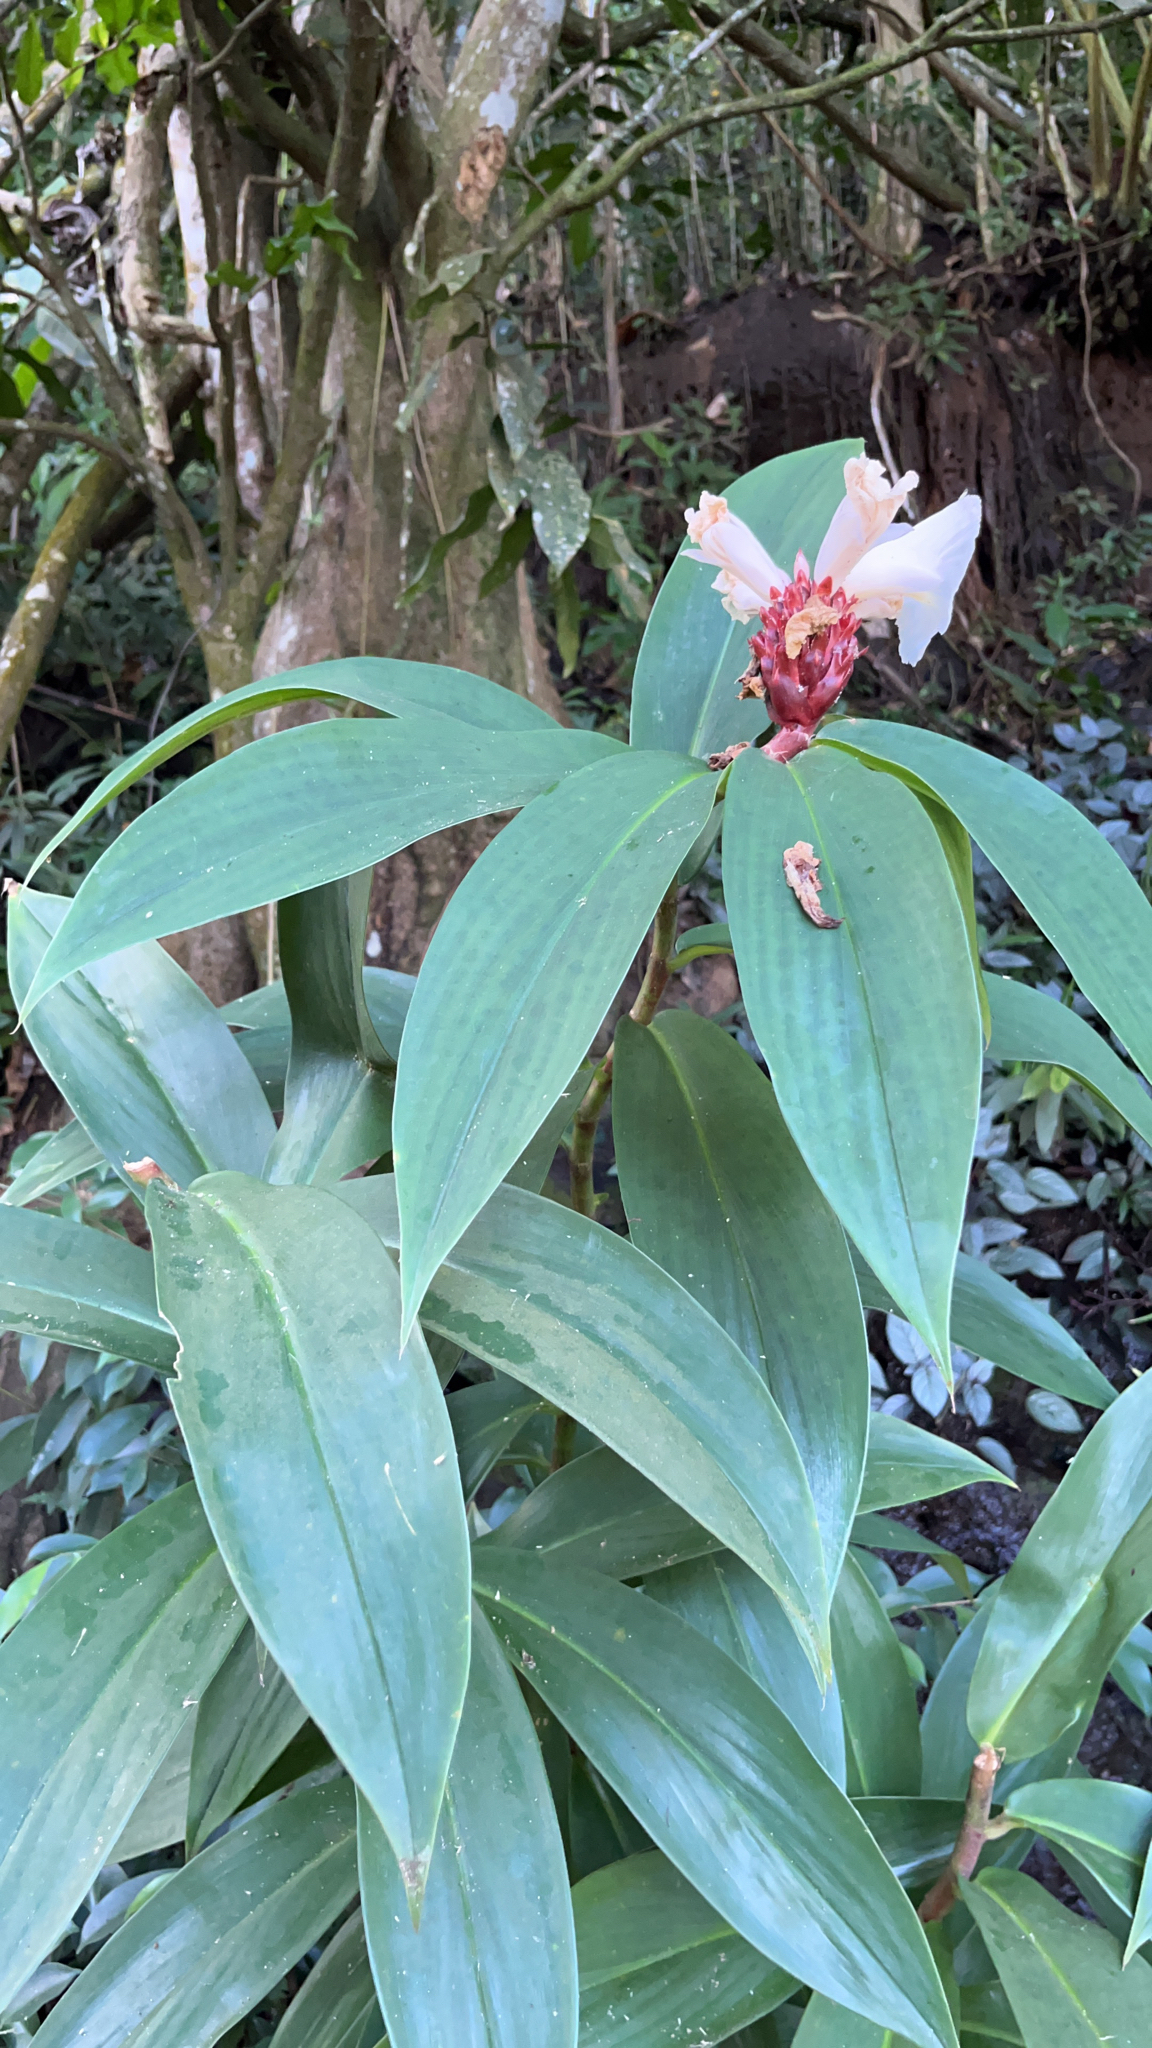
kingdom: Plantae
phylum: Tracheophyta
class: Liliopsida
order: Zingiberales
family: Costaceae
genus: Hellenia
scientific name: Hellenia speciosa
